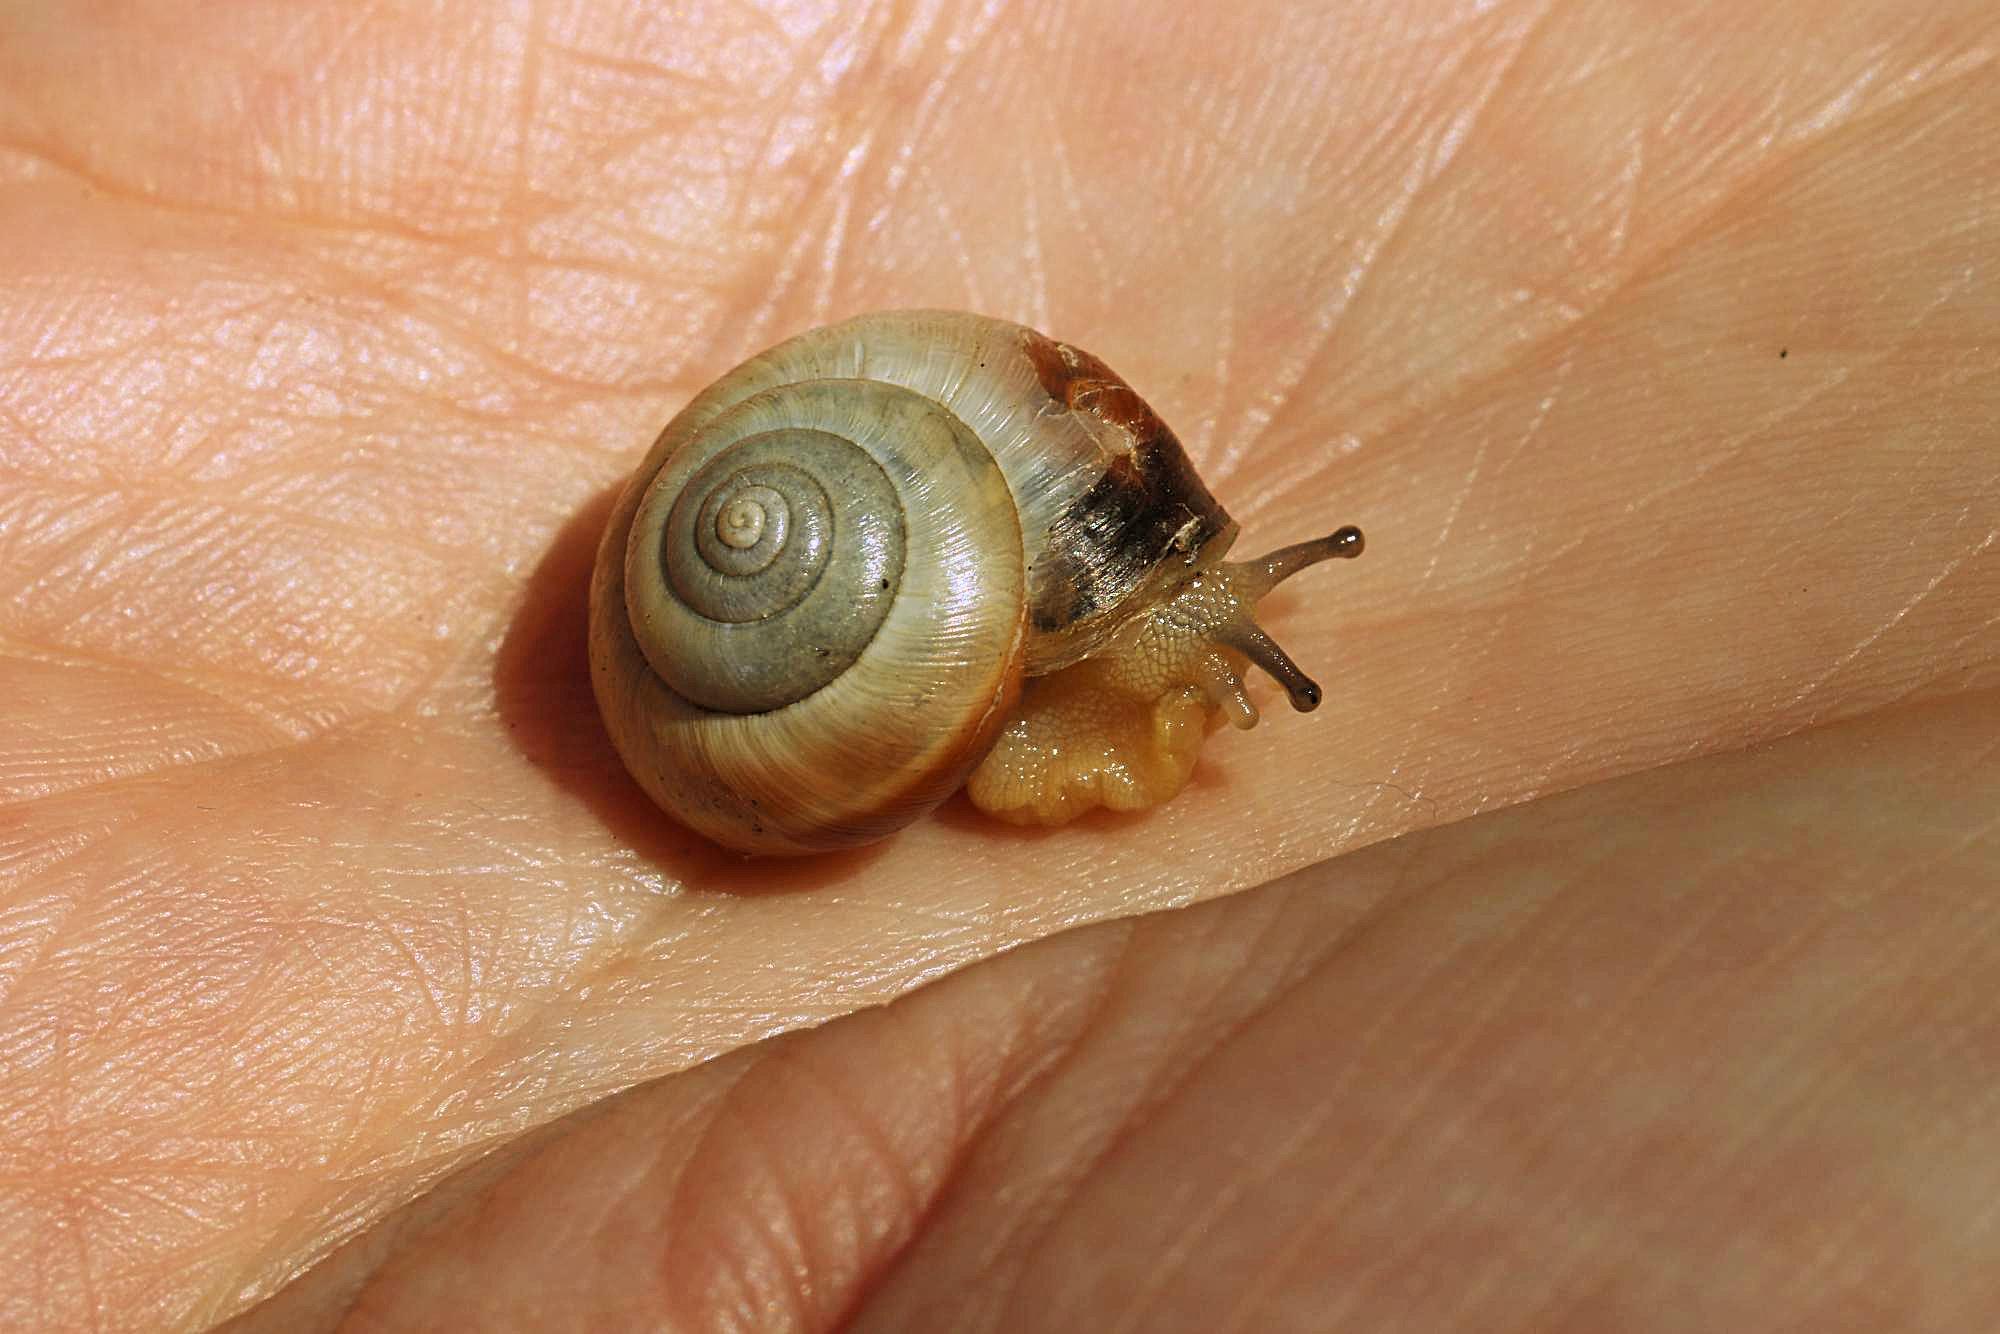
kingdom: Animalia
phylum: Mollusca
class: Gastropoda
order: Stylommatophora
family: Hygromiidae
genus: Monacha
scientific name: Monacha cantiana
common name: Kentish snail
